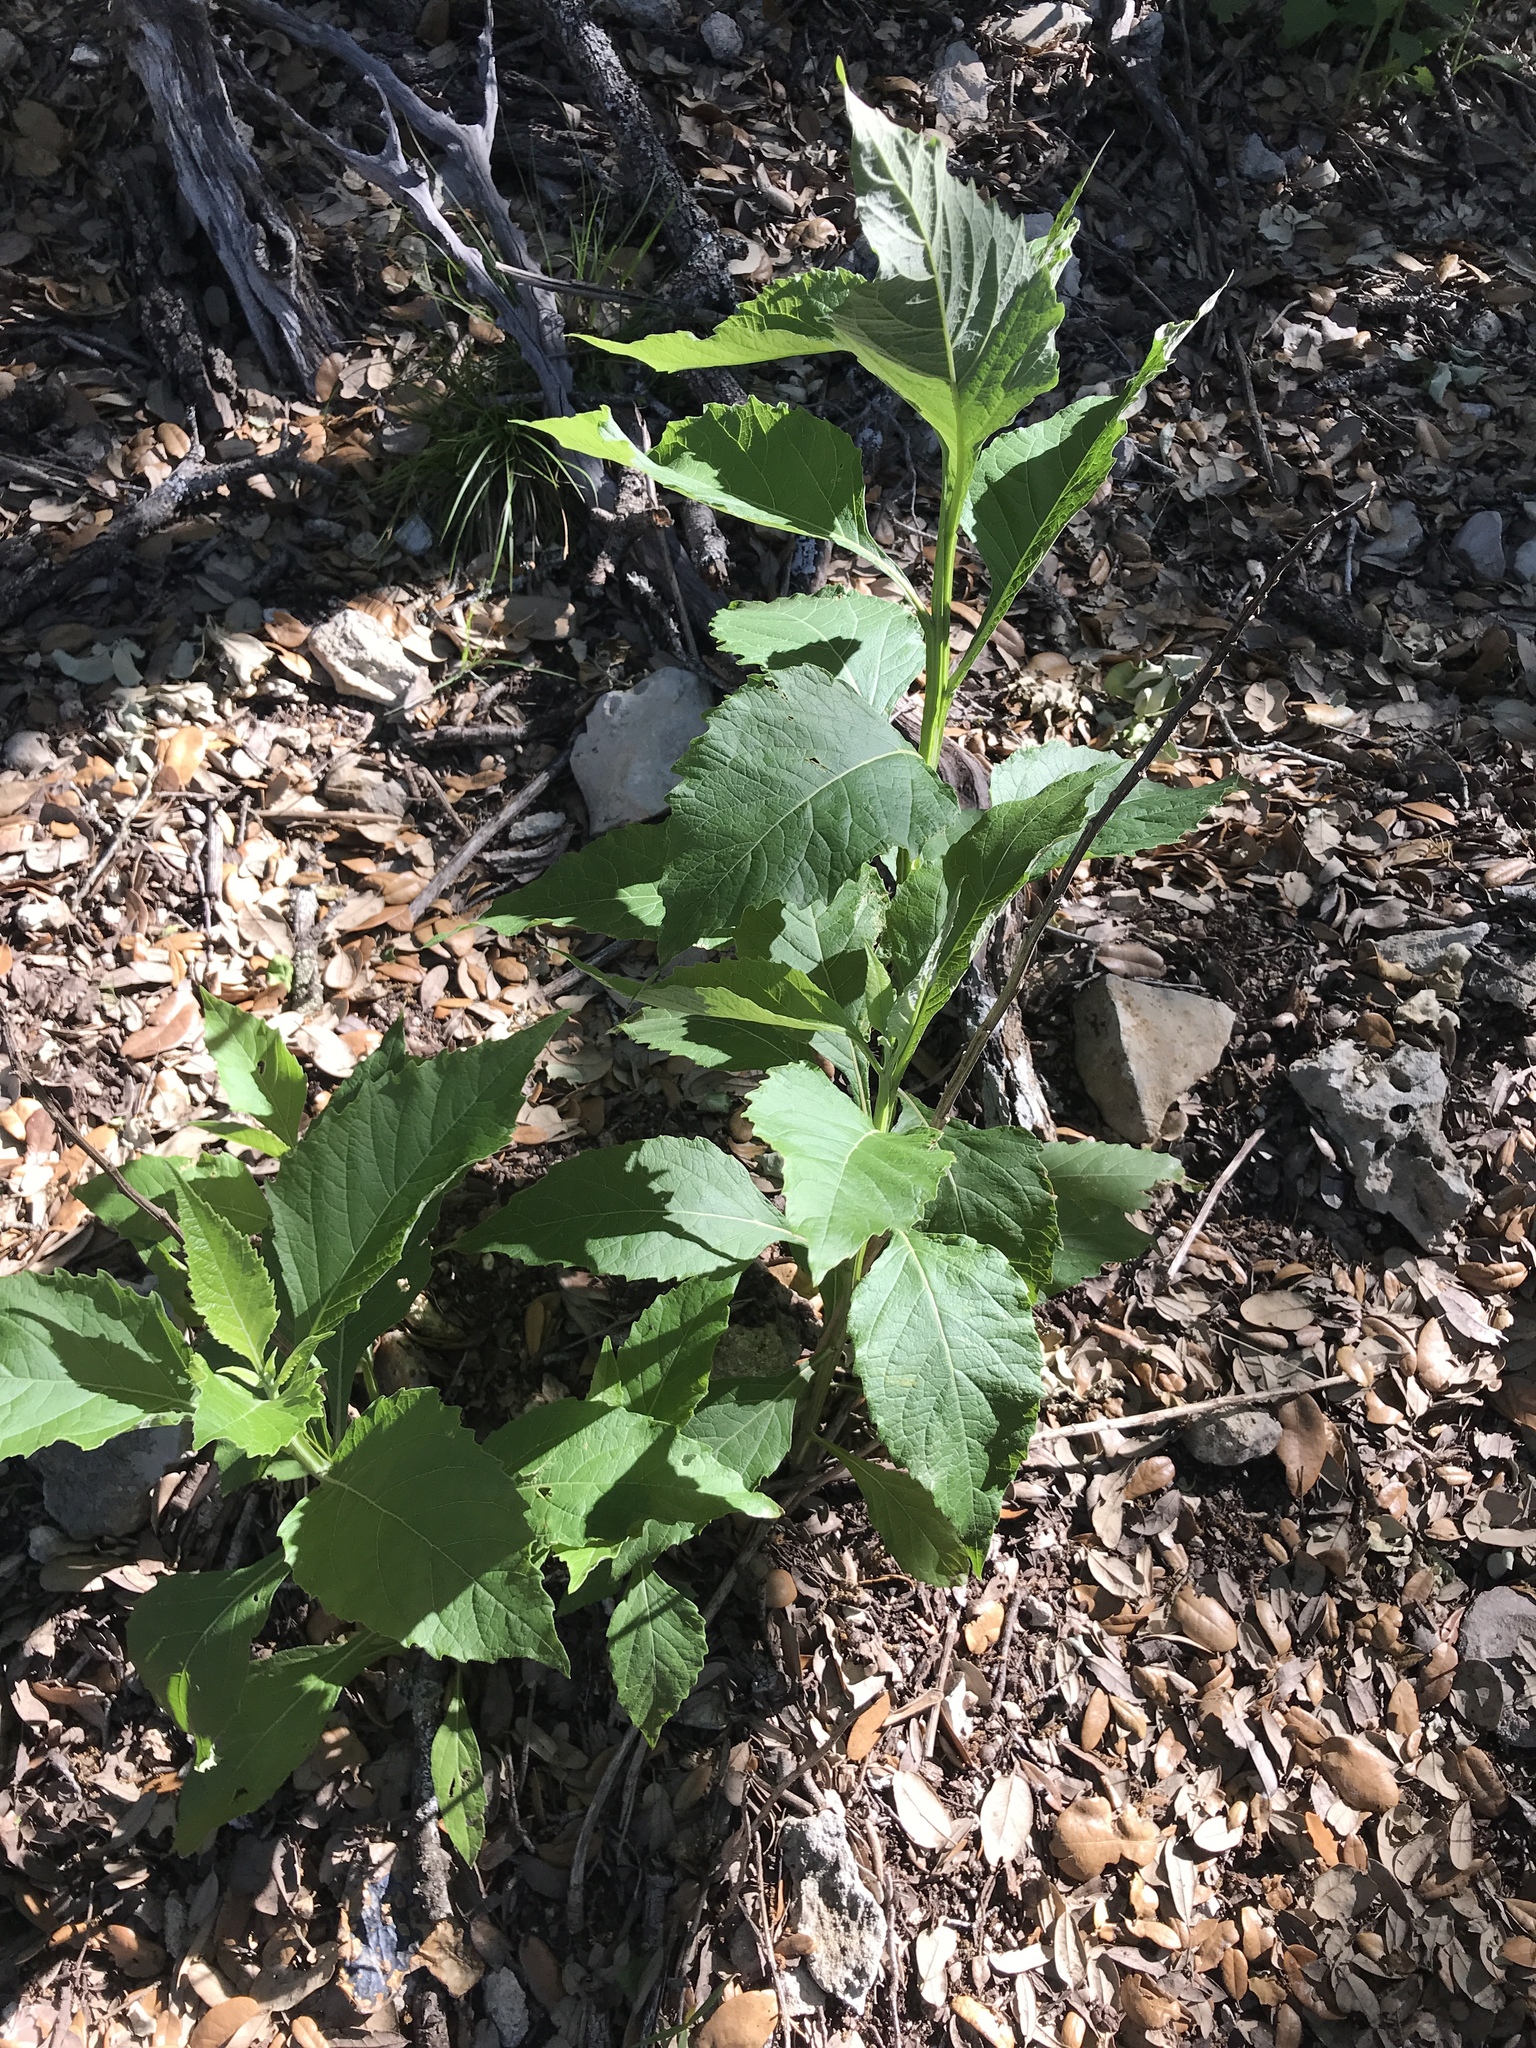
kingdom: Plantae
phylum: Tracheophyta
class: Magnoliopsida
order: Asterales
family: Asteraceae
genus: Verbesina
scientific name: Verbesina virginica
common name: Frostweed
